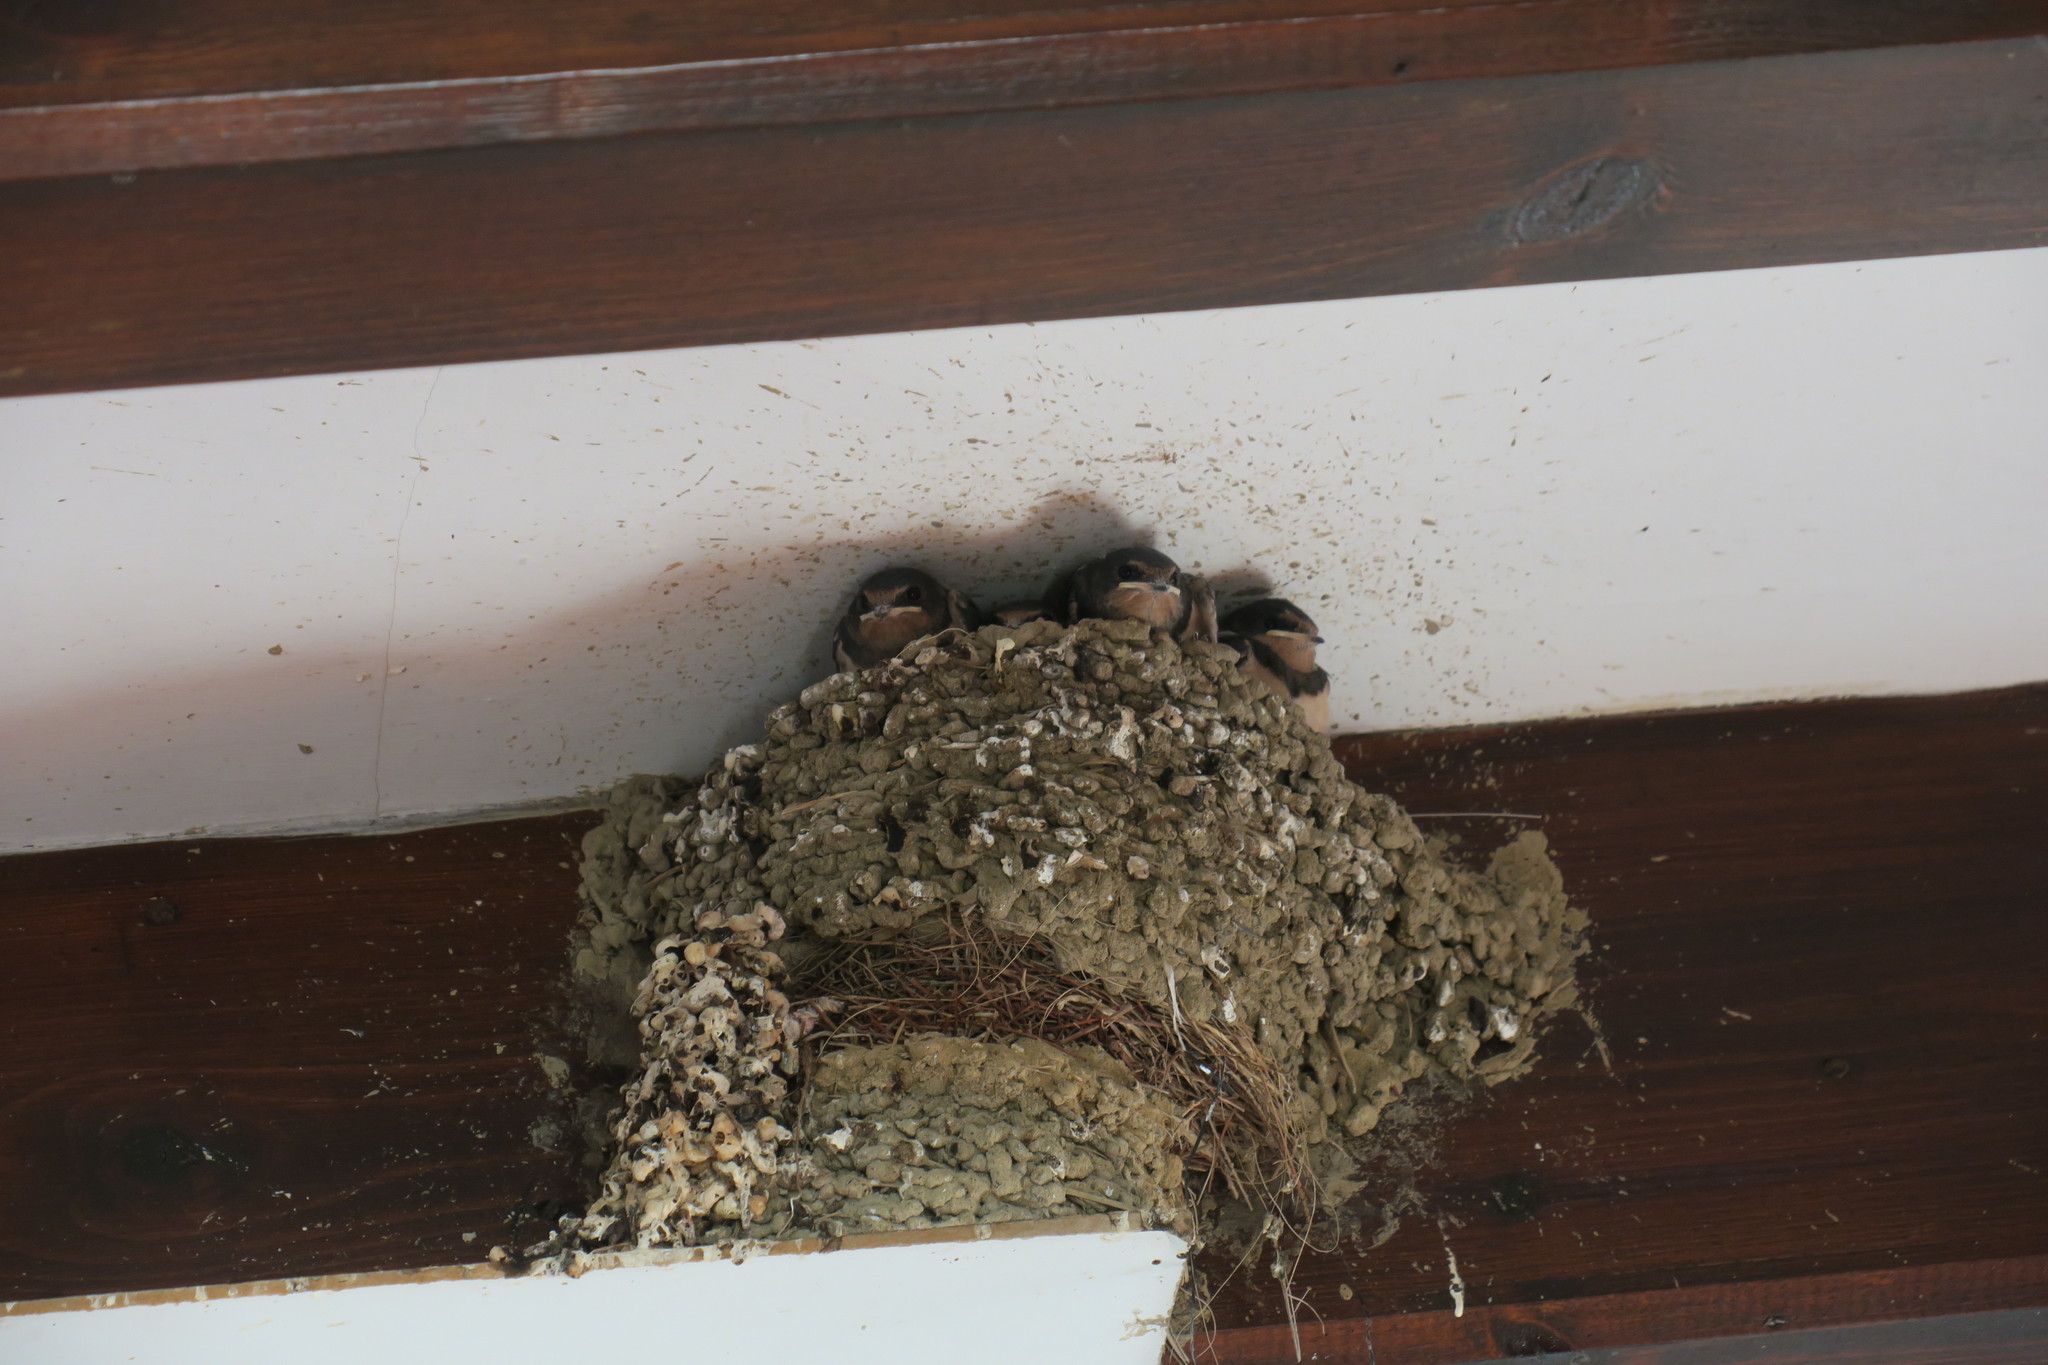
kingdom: Animalia
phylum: Chordata
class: Aves
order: Passeriformes
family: Hirundinidae
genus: Hirundo
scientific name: Hirundo rustica
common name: Barn swallow
